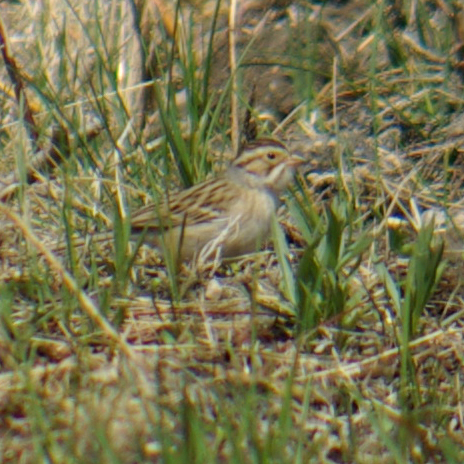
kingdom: Animalia
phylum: Chordata
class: Aves
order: Passeriformes
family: Passerellidae
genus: Spizella
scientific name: Spizella pallida
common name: Clay-colored sparrow
